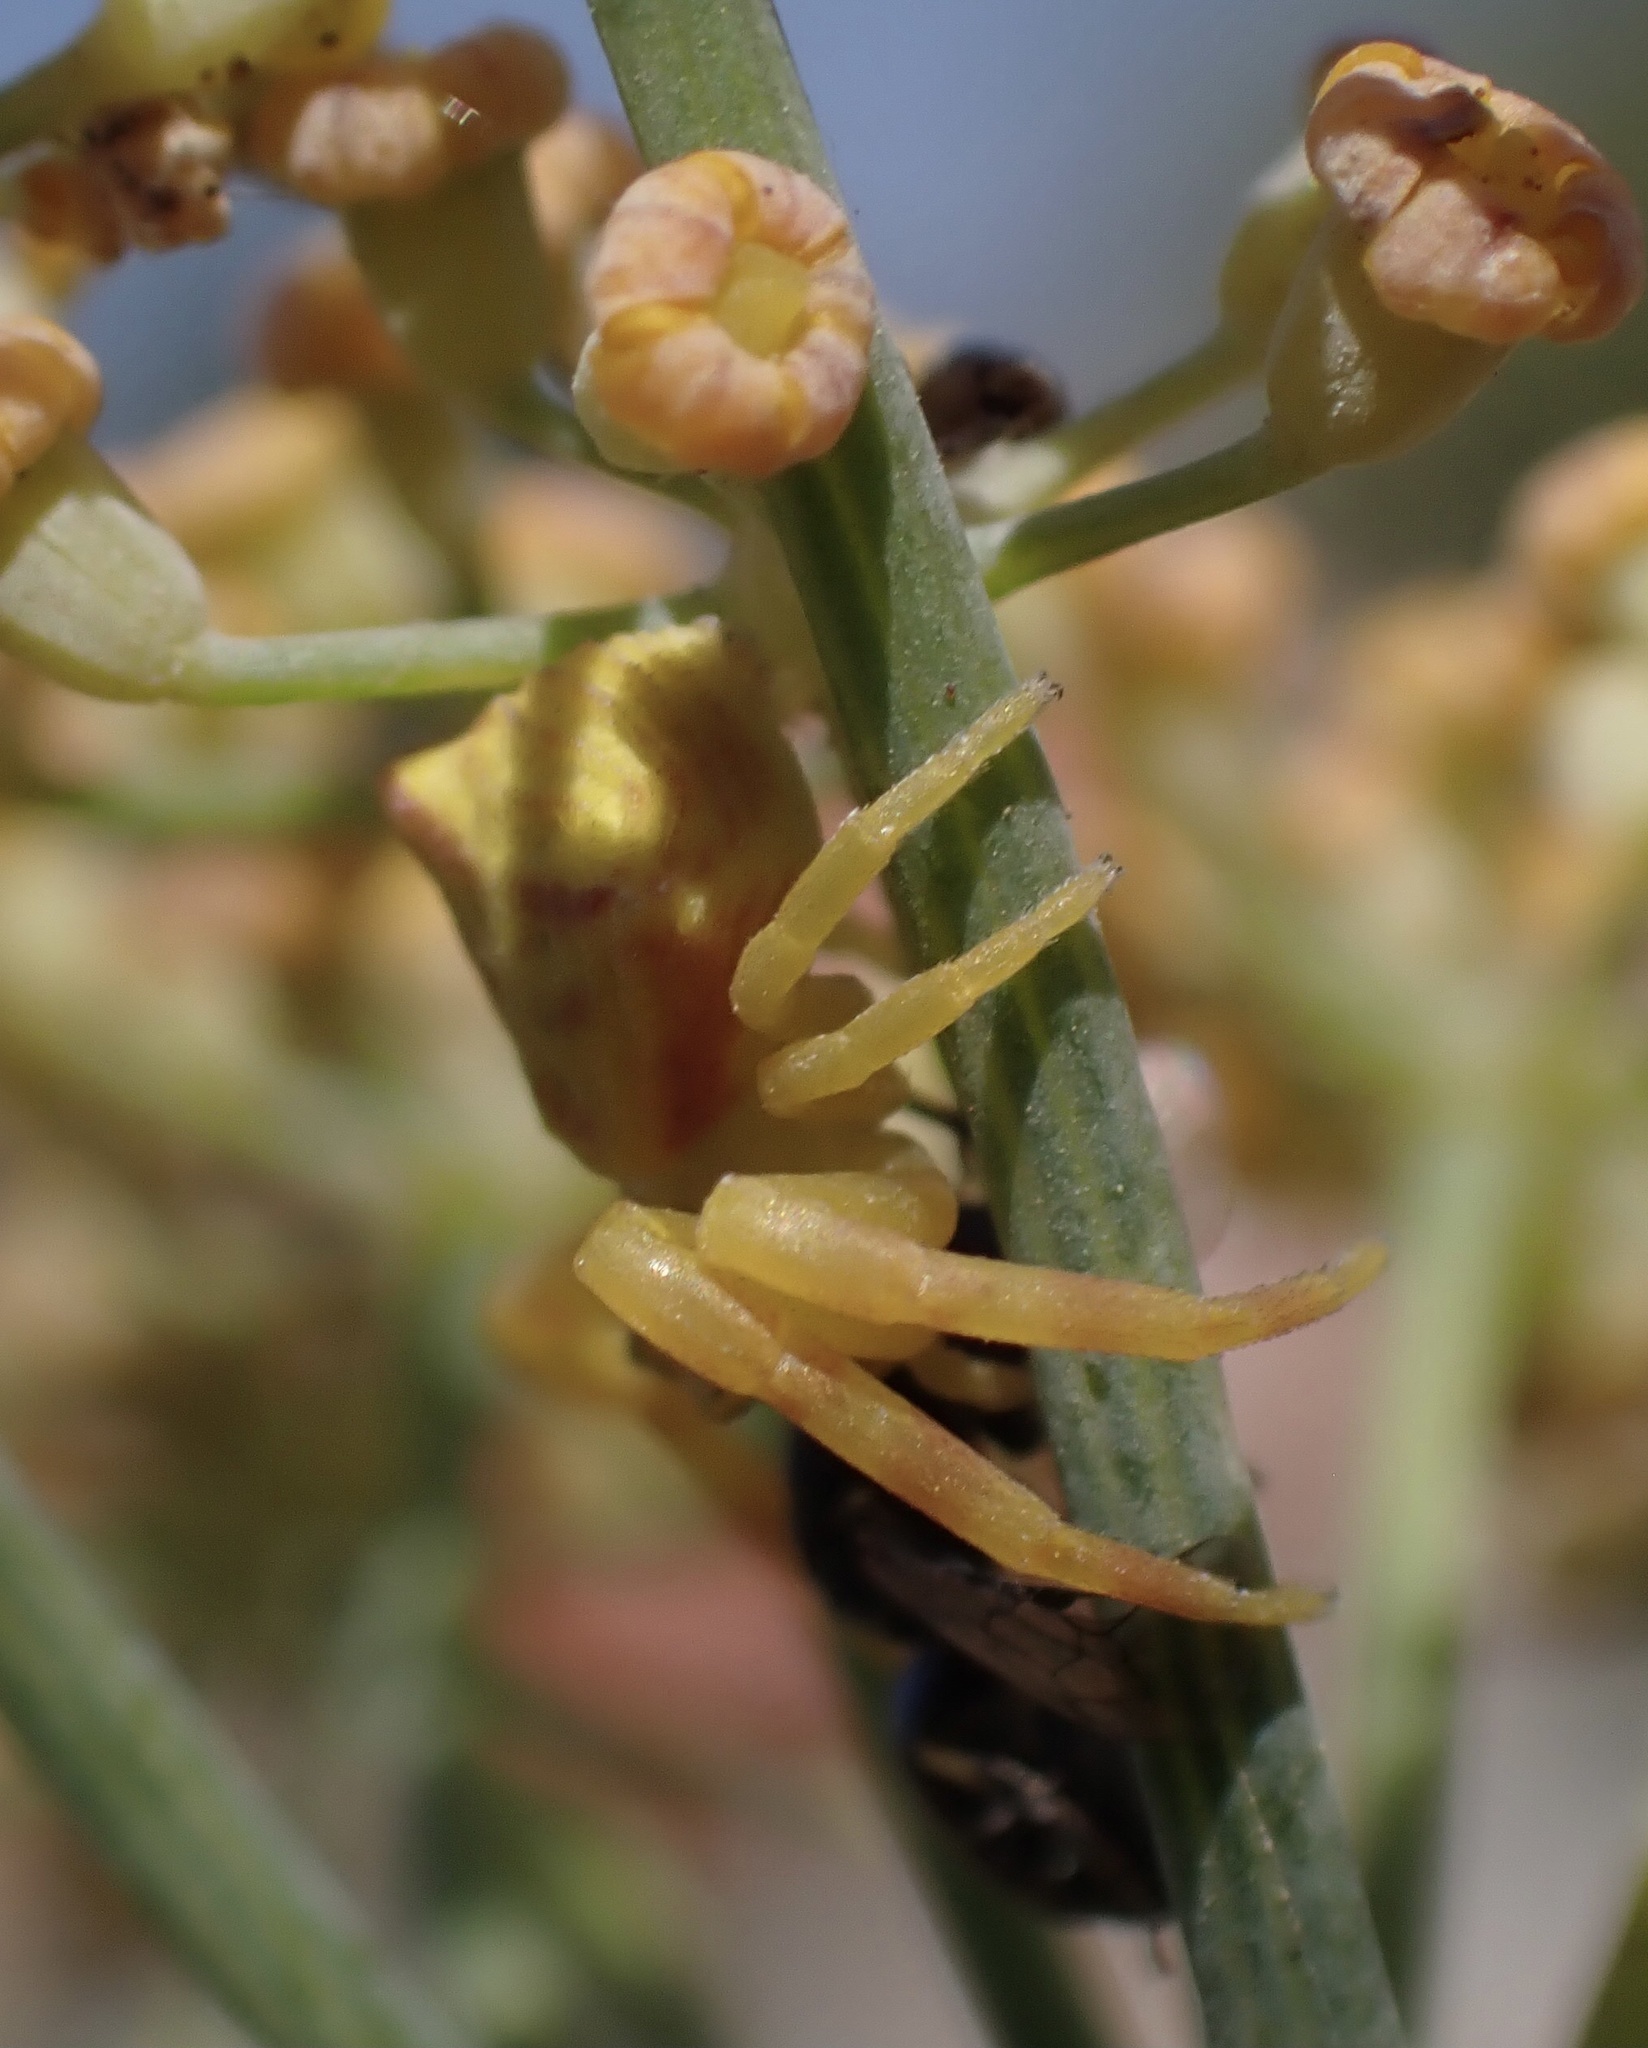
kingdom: Animalia
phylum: Arthropoda
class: Arachnida
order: Araneae
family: Thomisidae
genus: Thomisus
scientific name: Thomisus onustus
